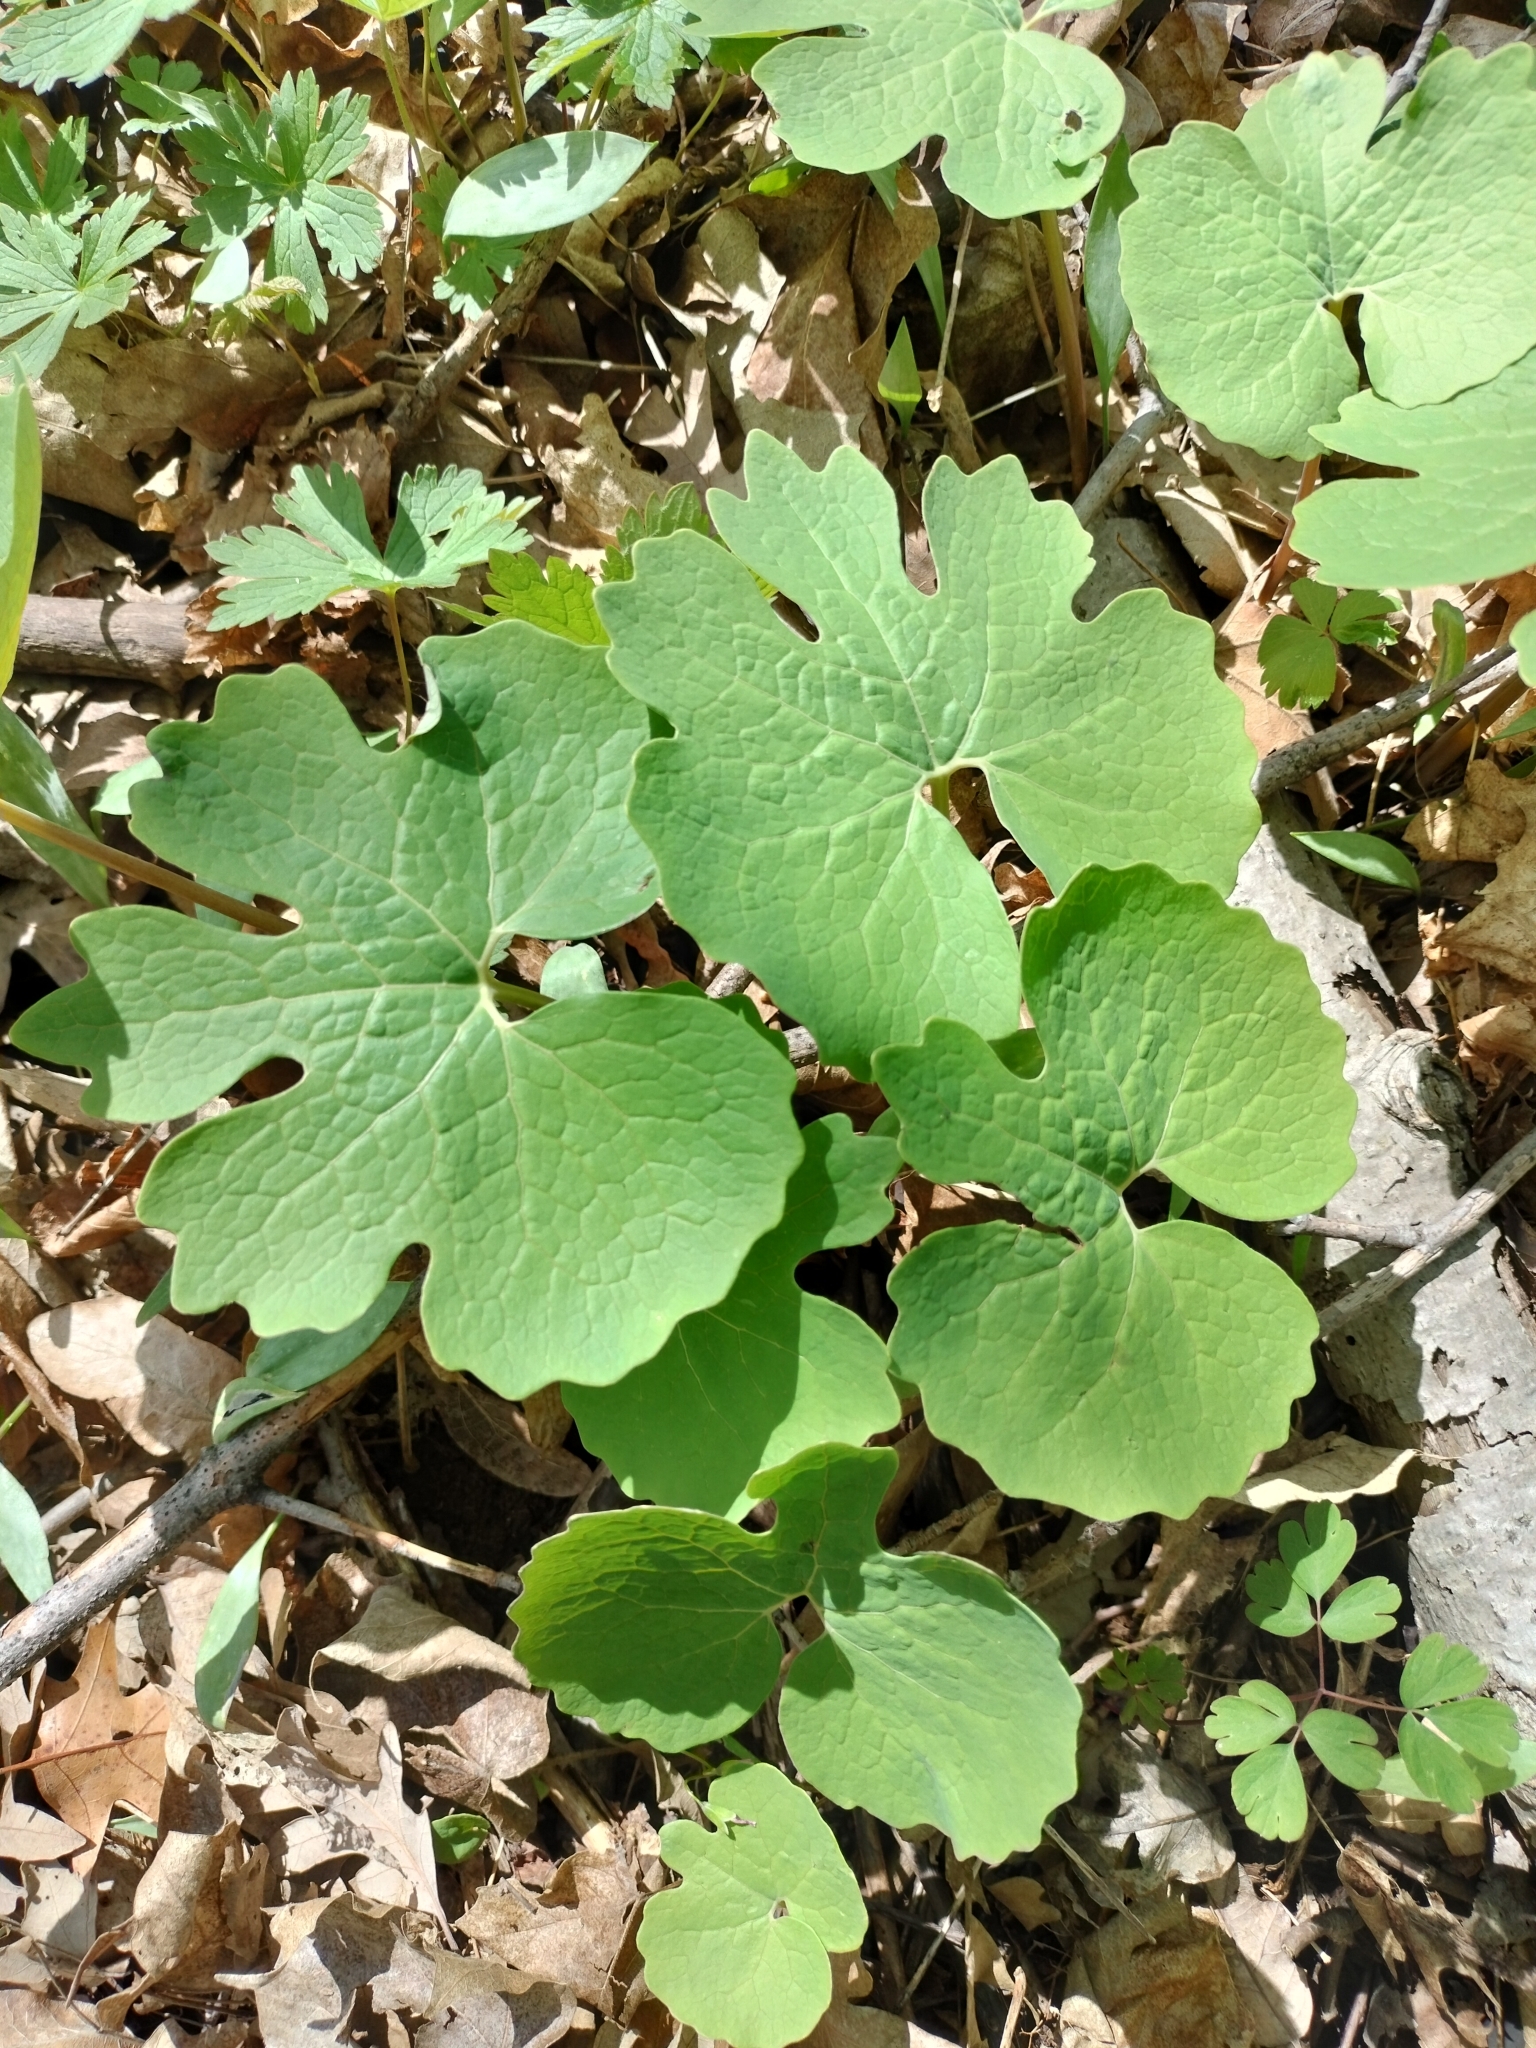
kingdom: Plantae
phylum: Tracheophyta
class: Magnoliopsida
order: Ranunculales
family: Papaveraceae
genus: Sanguinaria
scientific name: Sanguinaria canadensis
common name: Bloodroot
